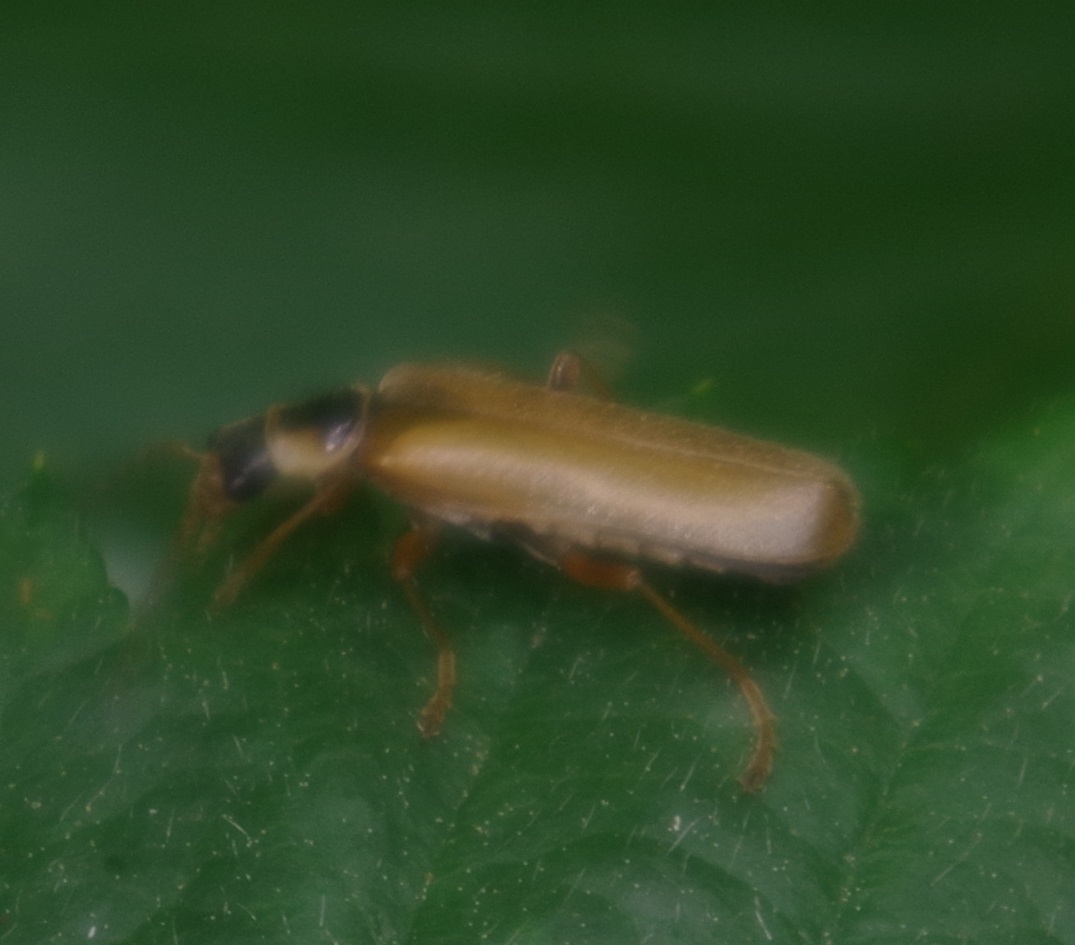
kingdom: Animalia
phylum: Arthropoda
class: Insecta
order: Coleoptera
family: Cantharidae
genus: Cantharis
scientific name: Cantharis decipiens
